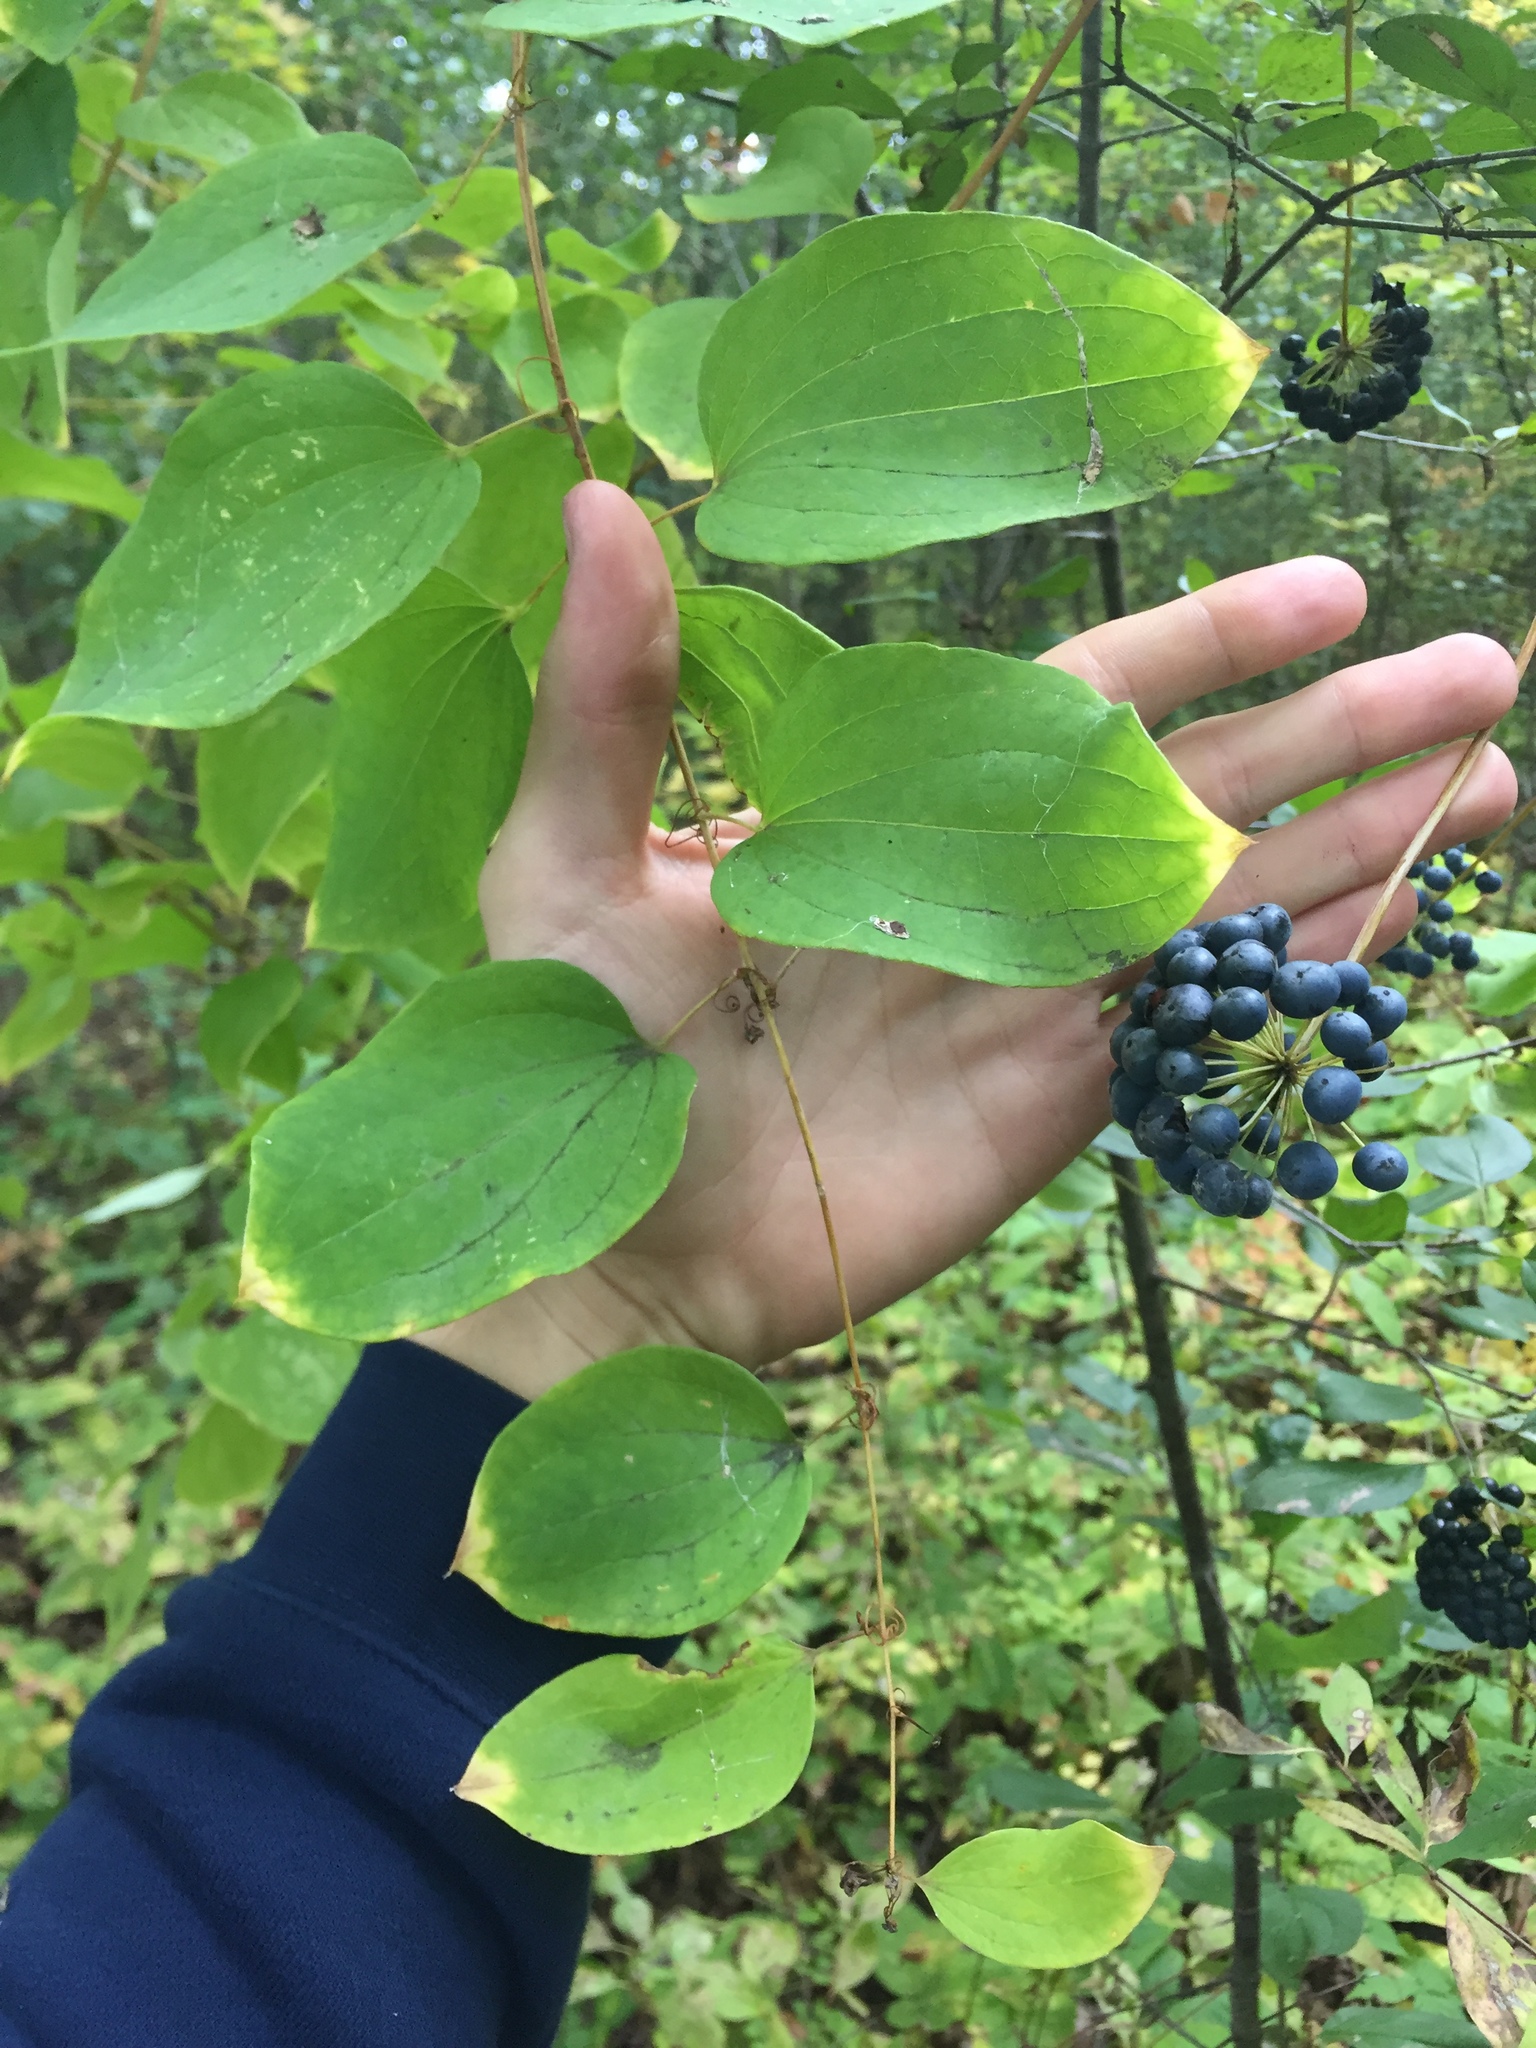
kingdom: Plantae
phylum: Tracheophyta
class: Liliopsida
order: Liliales
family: Smilacaceae
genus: Smilax
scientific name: Smilax herbacea
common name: Jacob's-ladder
